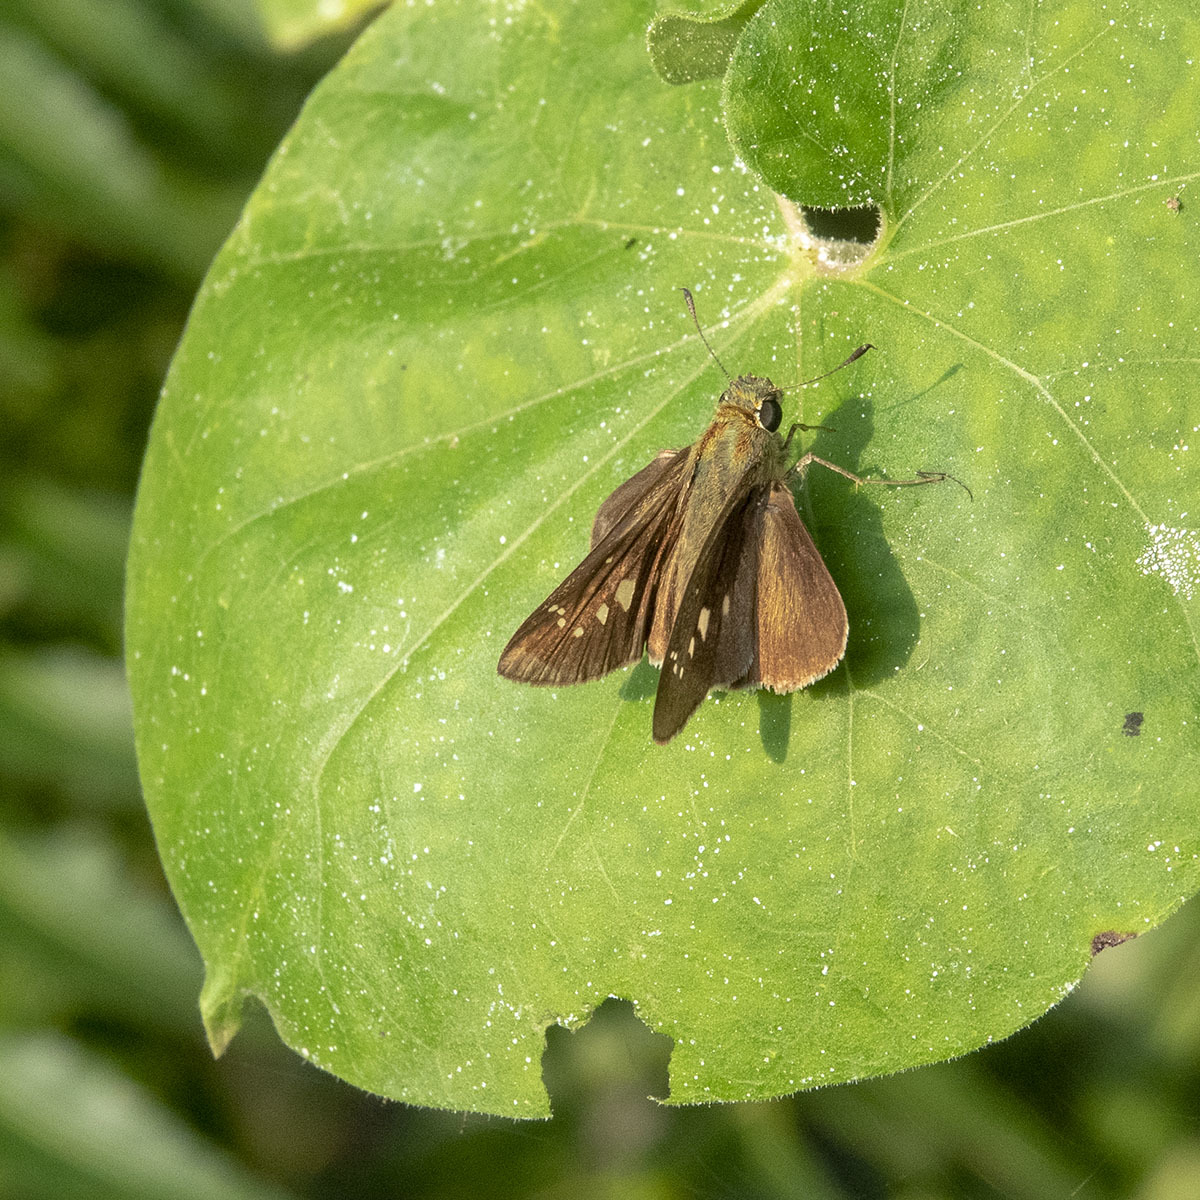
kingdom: Animalia
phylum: Arthropoda
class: Insecta
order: Lepidoptera
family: Hesperiidae
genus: Borbo
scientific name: Borbo cinnara
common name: Formosan swift
